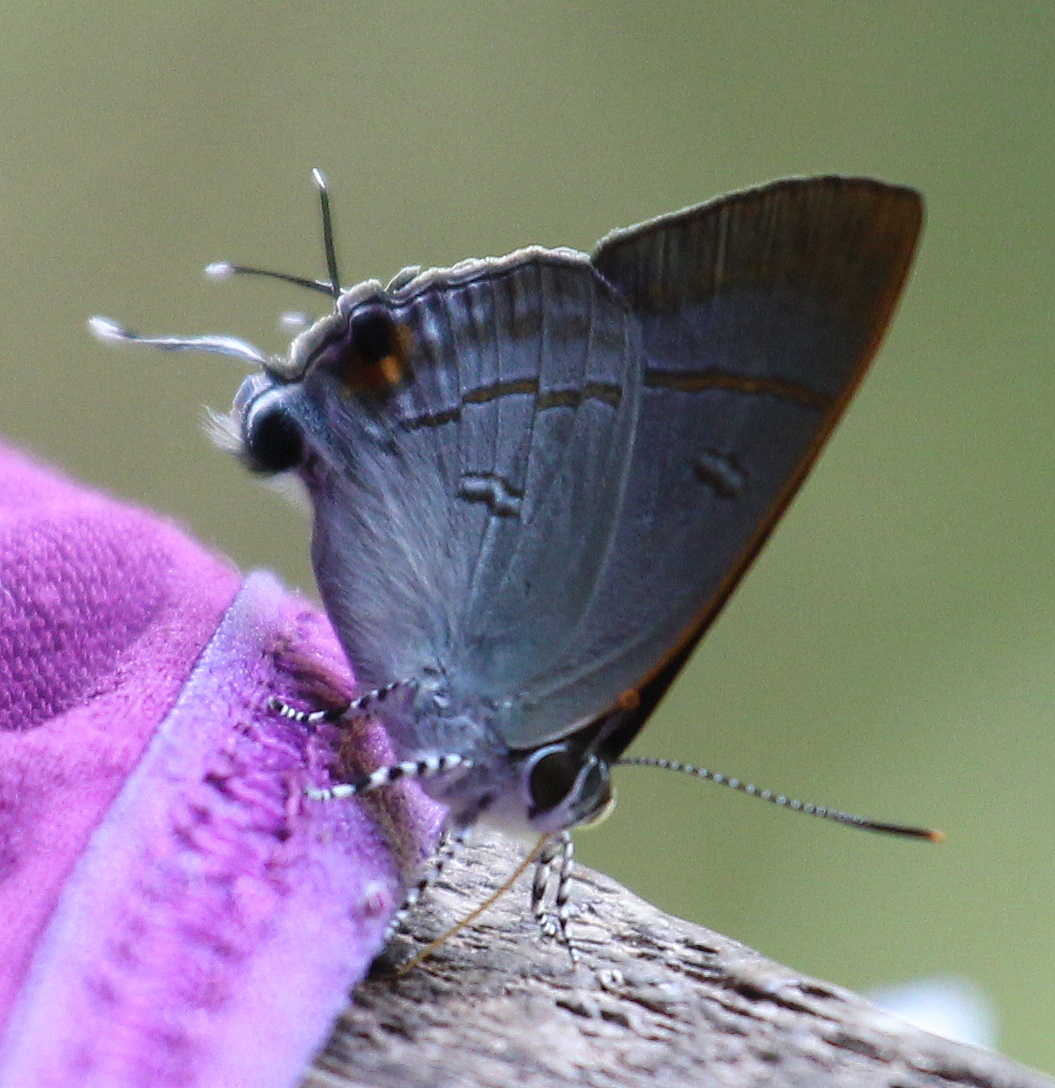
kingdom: Animalia
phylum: Arthropoda
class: Insecta
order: Lepidoptera
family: Lycaenidae
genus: Hypolycaena
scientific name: Hypolycaena erylus
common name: Common tit
